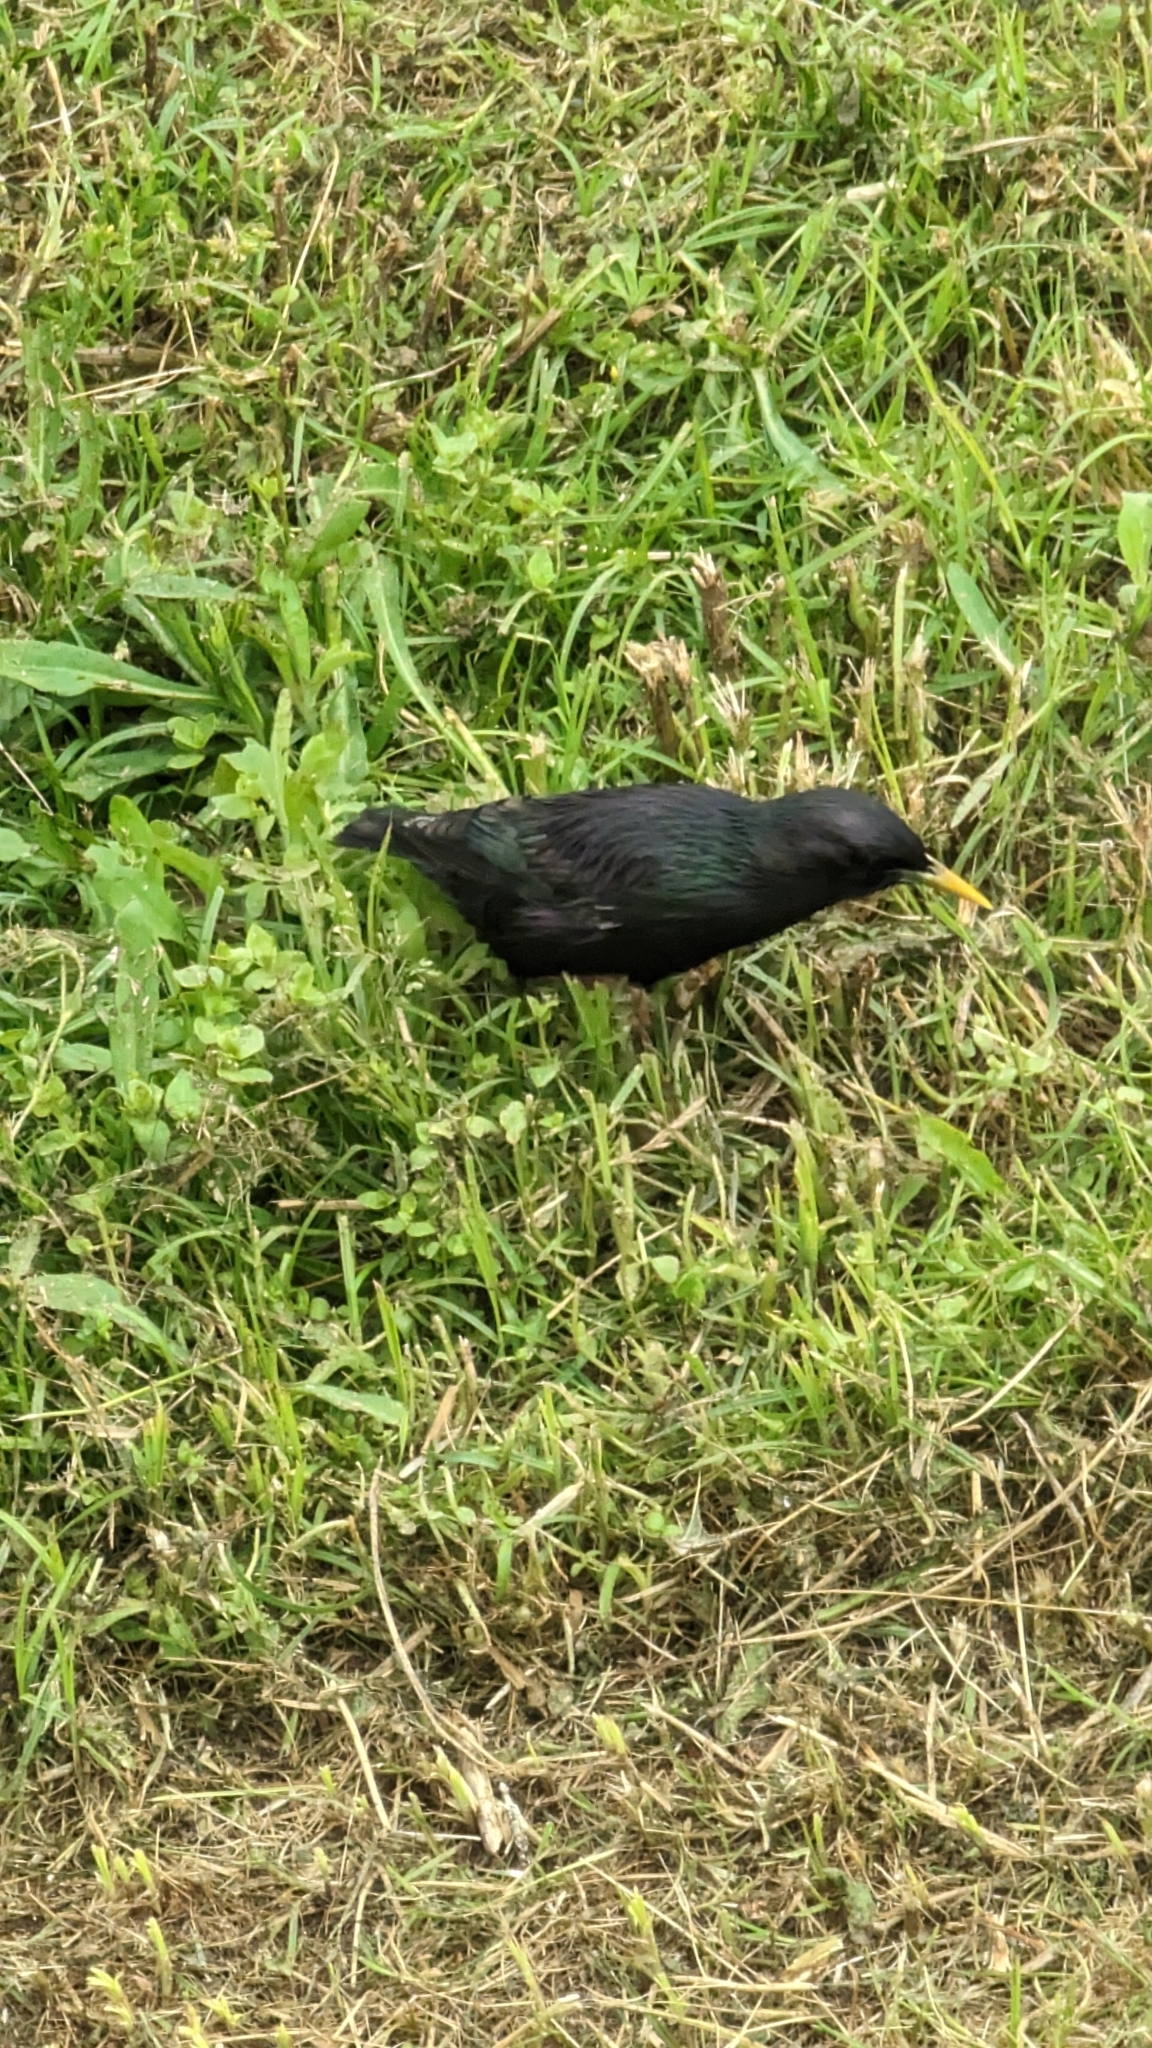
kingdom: Animalia
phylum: Chordata
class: Aves
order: Passeriformes
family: Sturnidae
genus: Sturnus
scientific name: Sturnus unicolor
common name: Spotless starling
